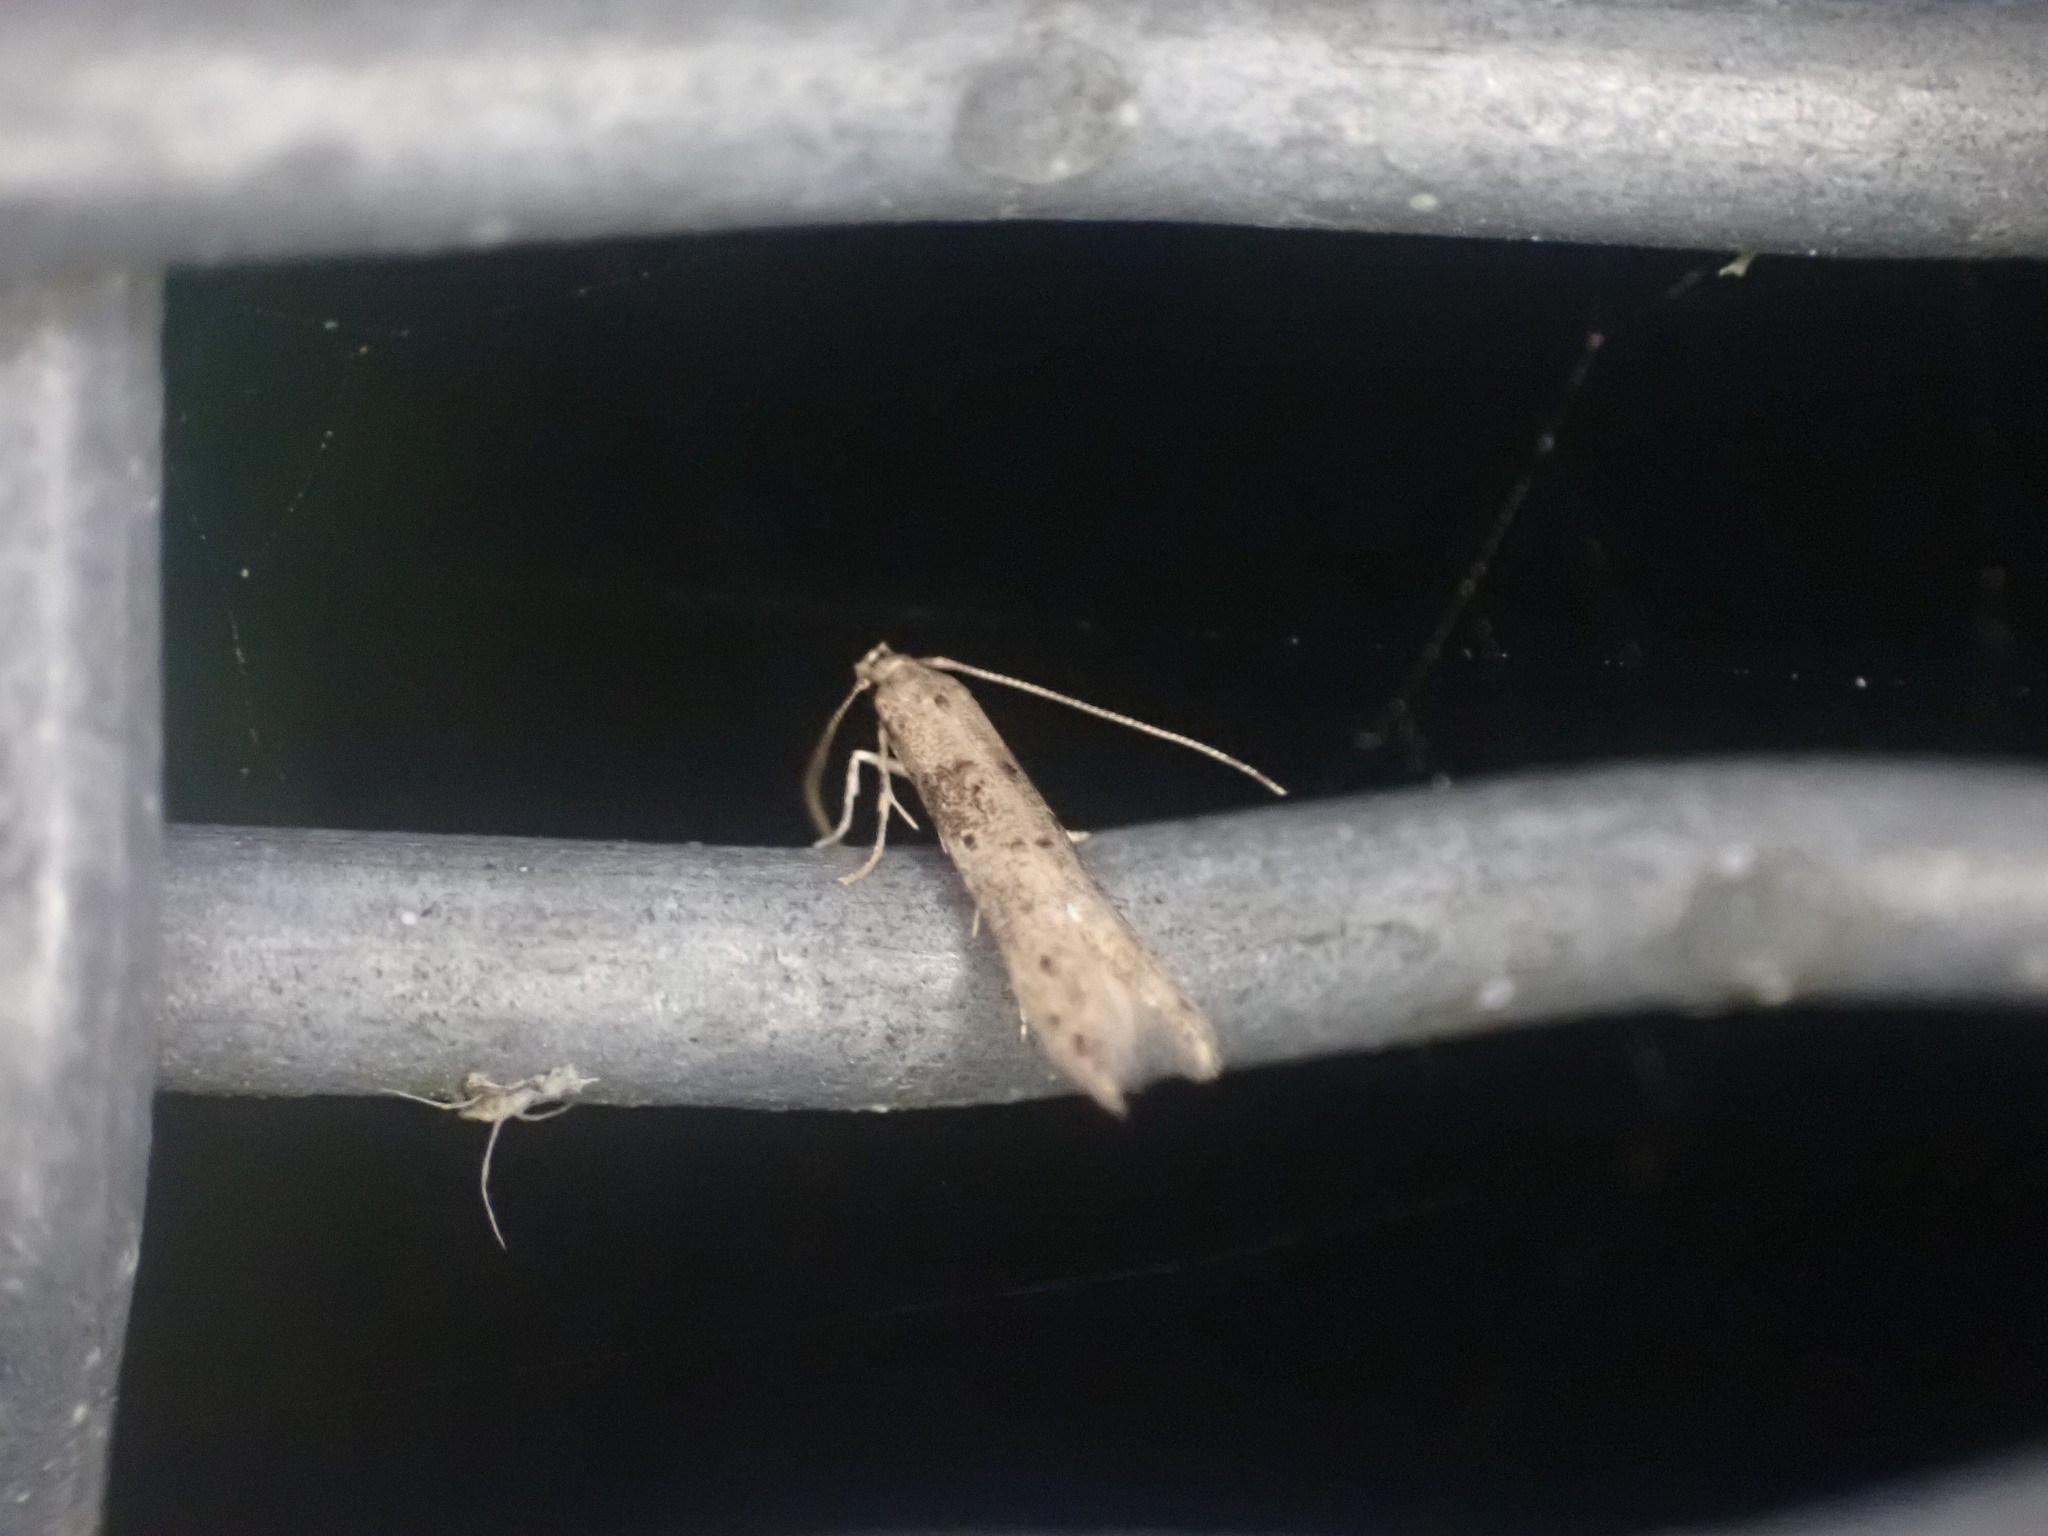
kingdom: Animalia
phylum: Arthropoda
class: Insecta
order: Lepidoptera
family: Elachistidae
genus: Microcolona
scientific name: Microcolona limodes
